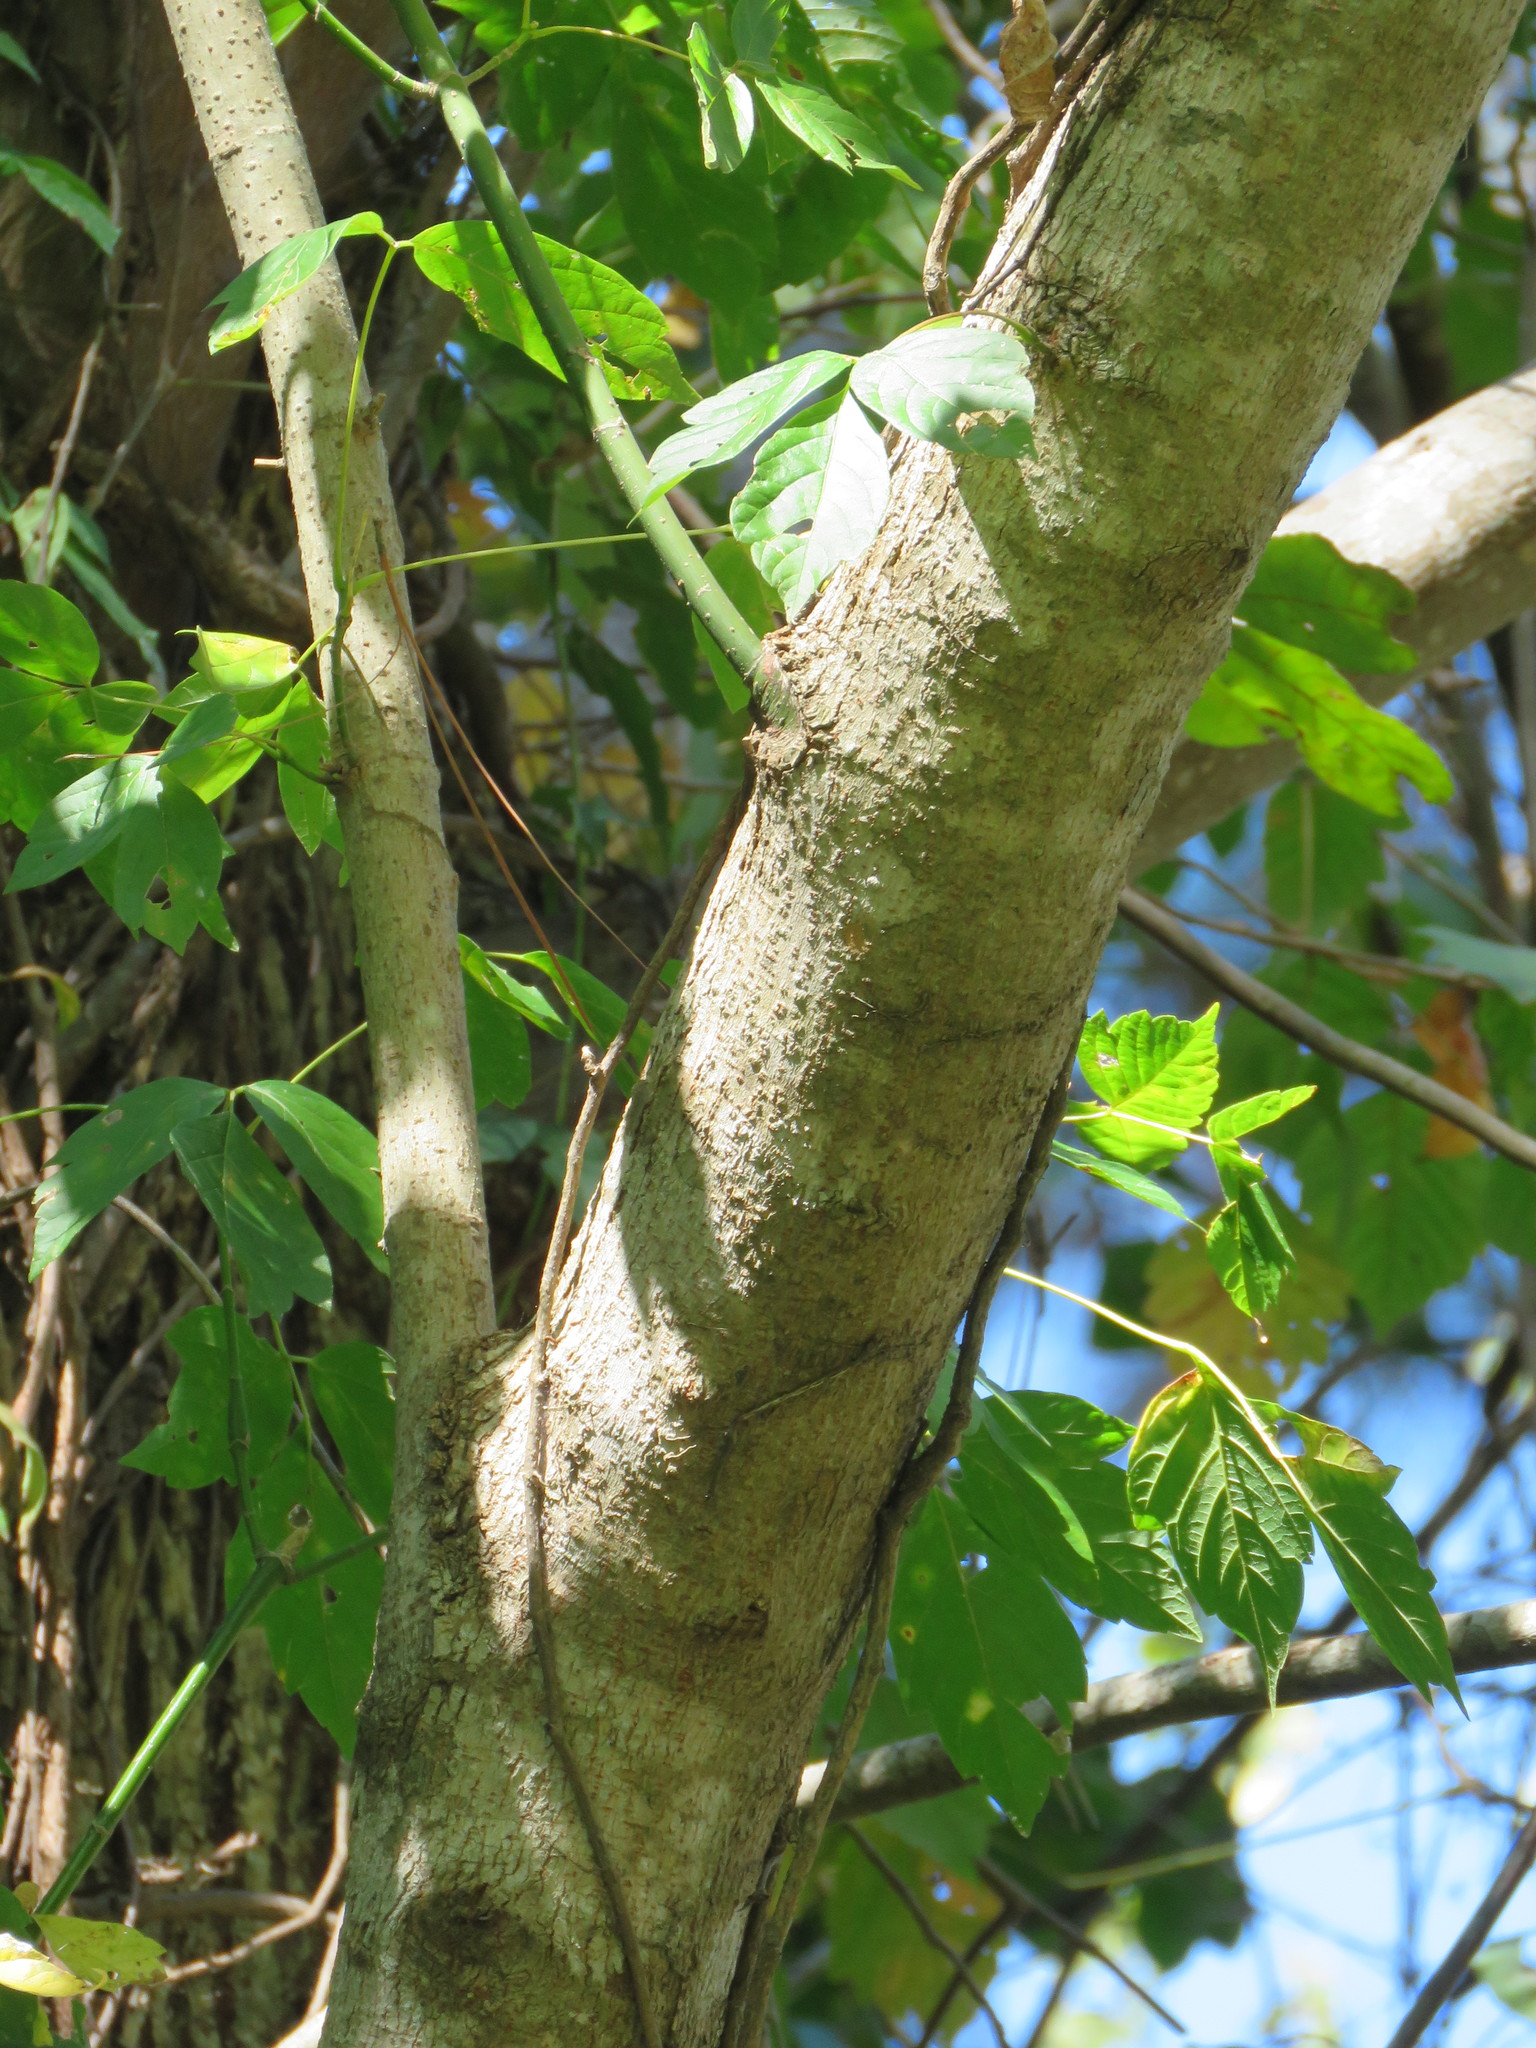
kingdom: Plantae
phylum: Tracheophyta
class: Magnoliopsida
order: Sapindales
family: Sapindaceae
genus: Acer
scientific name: Acer negundo
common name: Ashleaf maple
